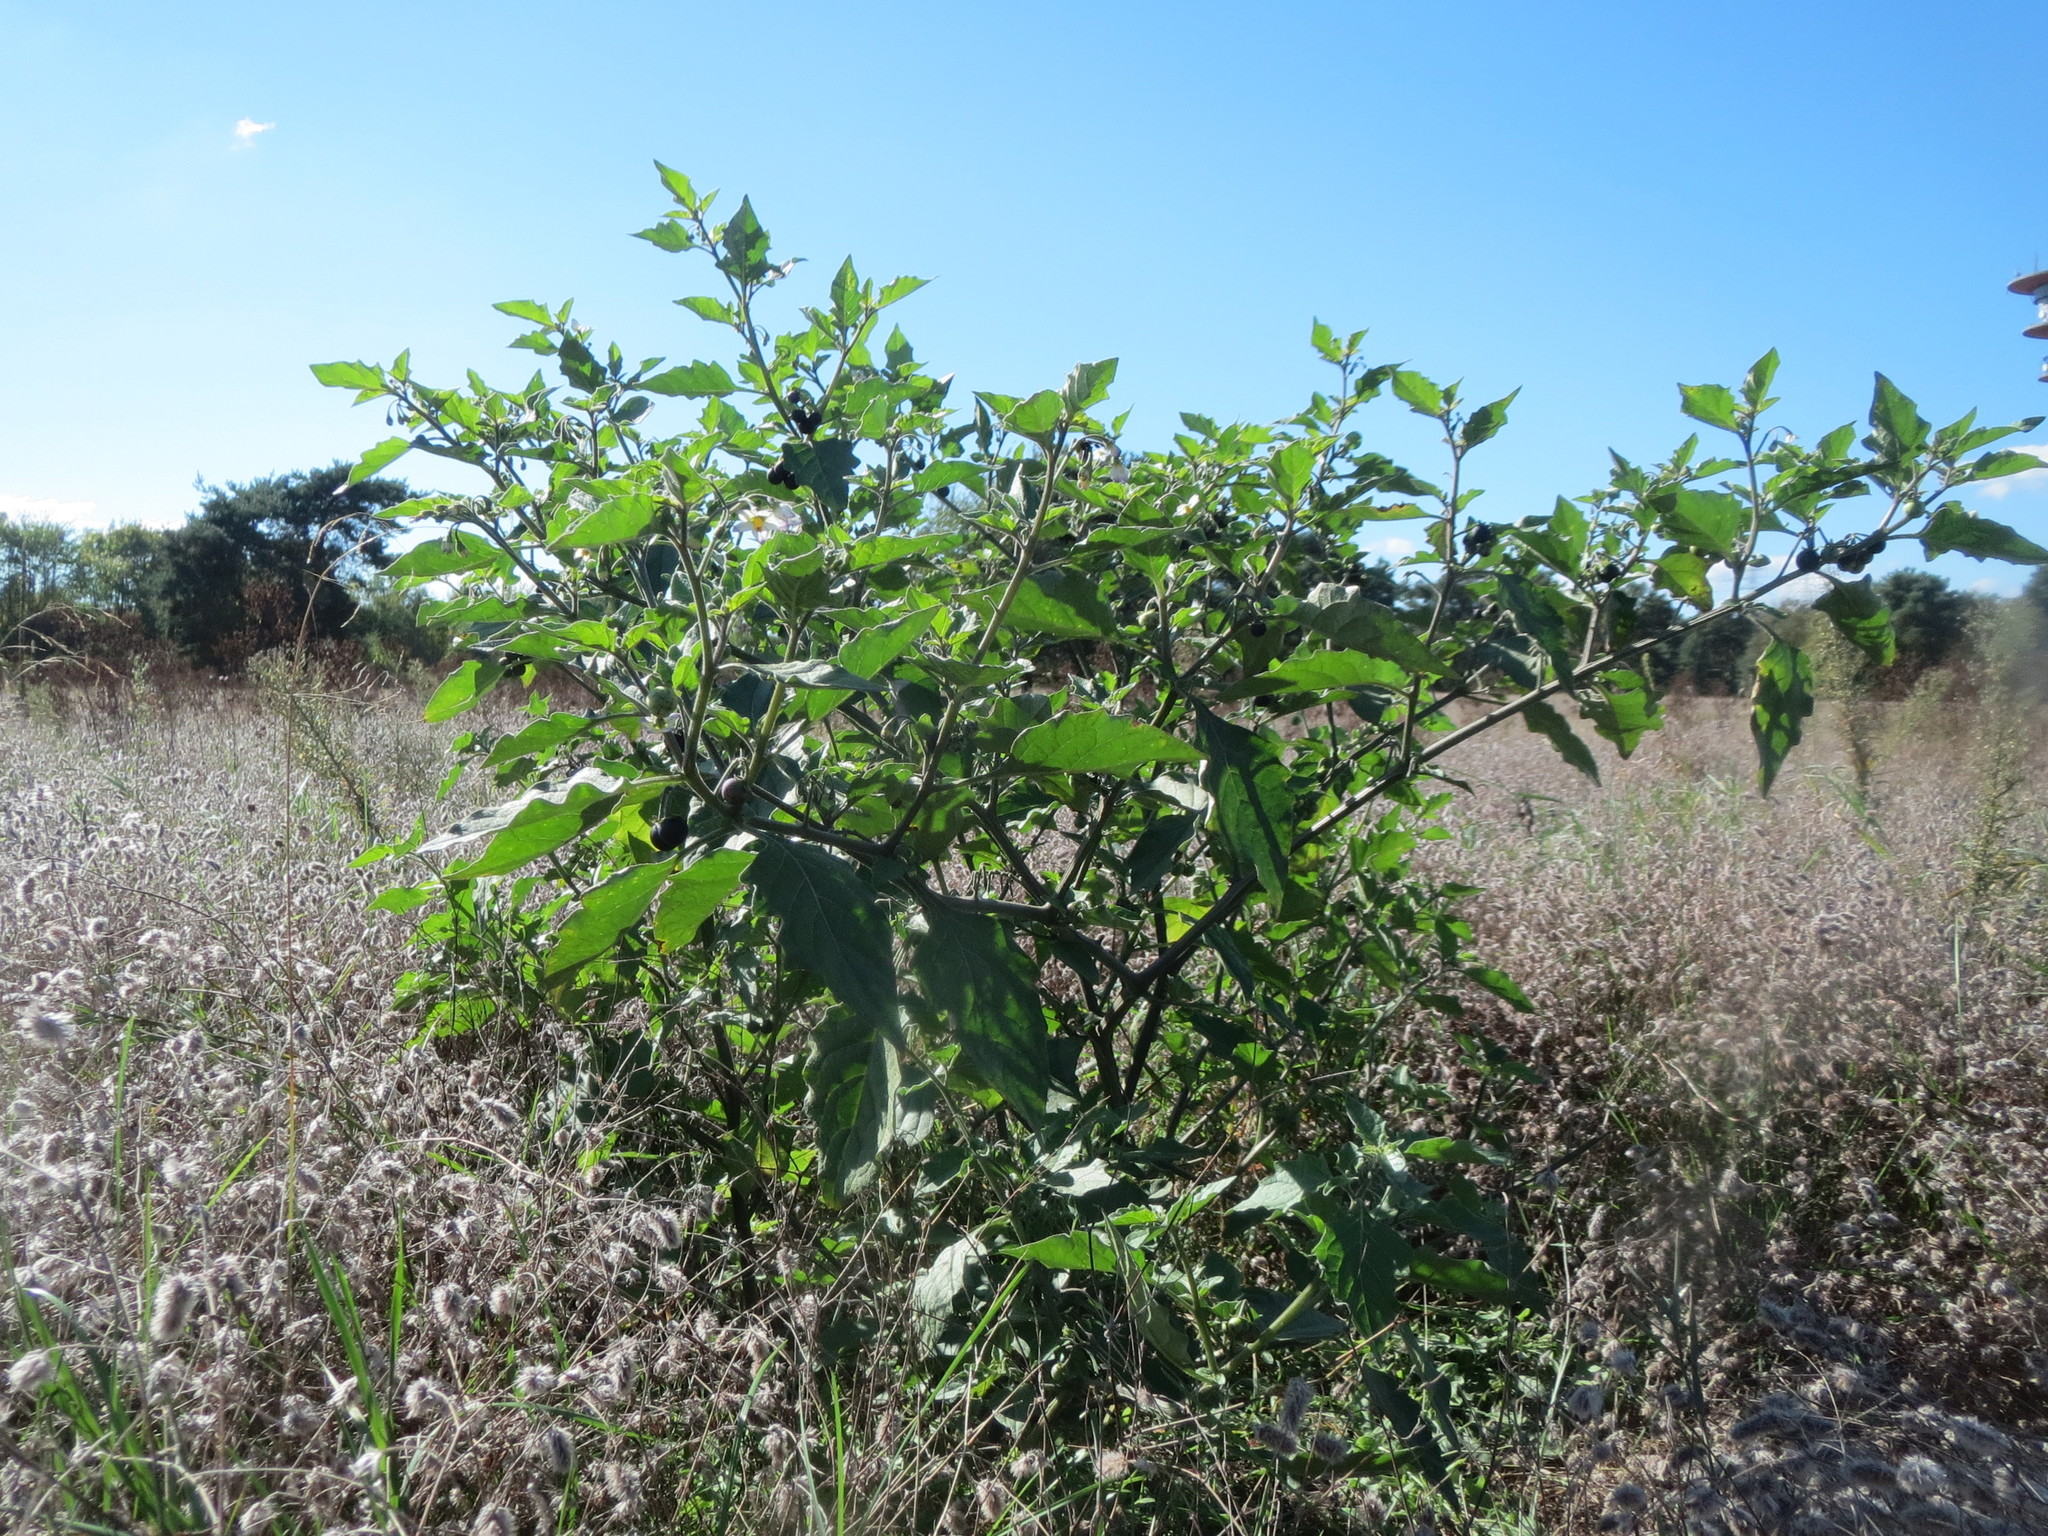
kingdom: Plantae
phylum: Tracheophyta
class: Magnoliopsida
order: Solanales
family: Solanaceae
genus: Solanum
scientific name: Solanum nigrum
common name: Black nightshade
